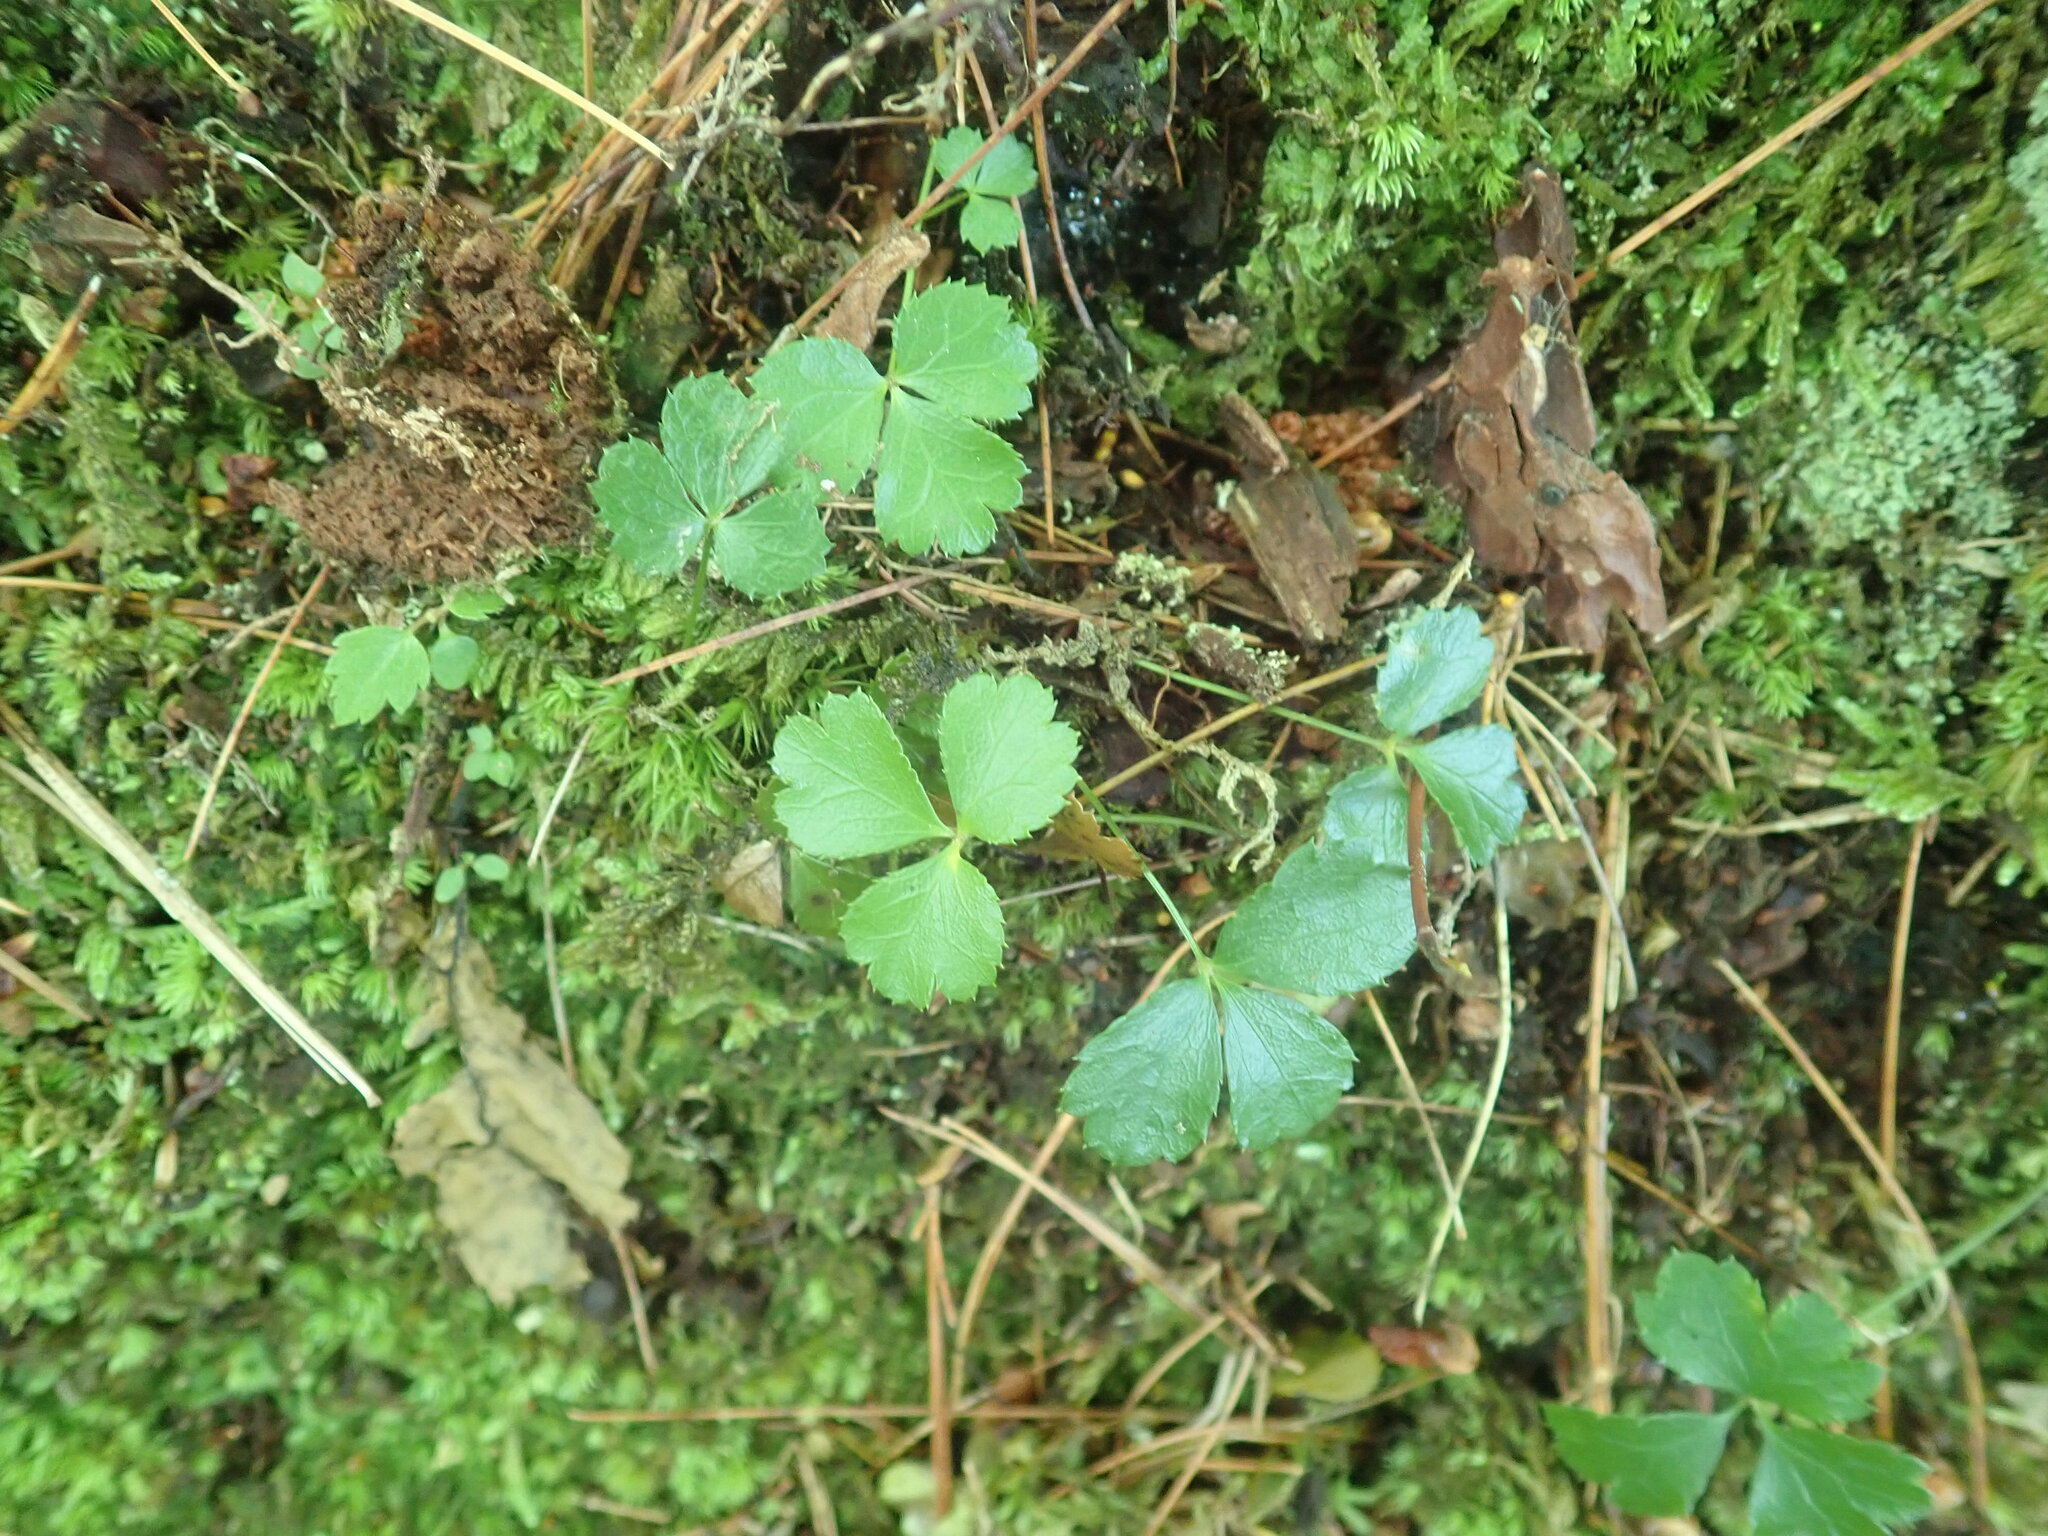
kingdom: Plantae
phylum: Tracheophyta
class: Magnoliopsida
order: Ranunculales
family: Ranunculaceae
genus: Coptis
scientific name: Coptis trifolia
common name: Canker-root
